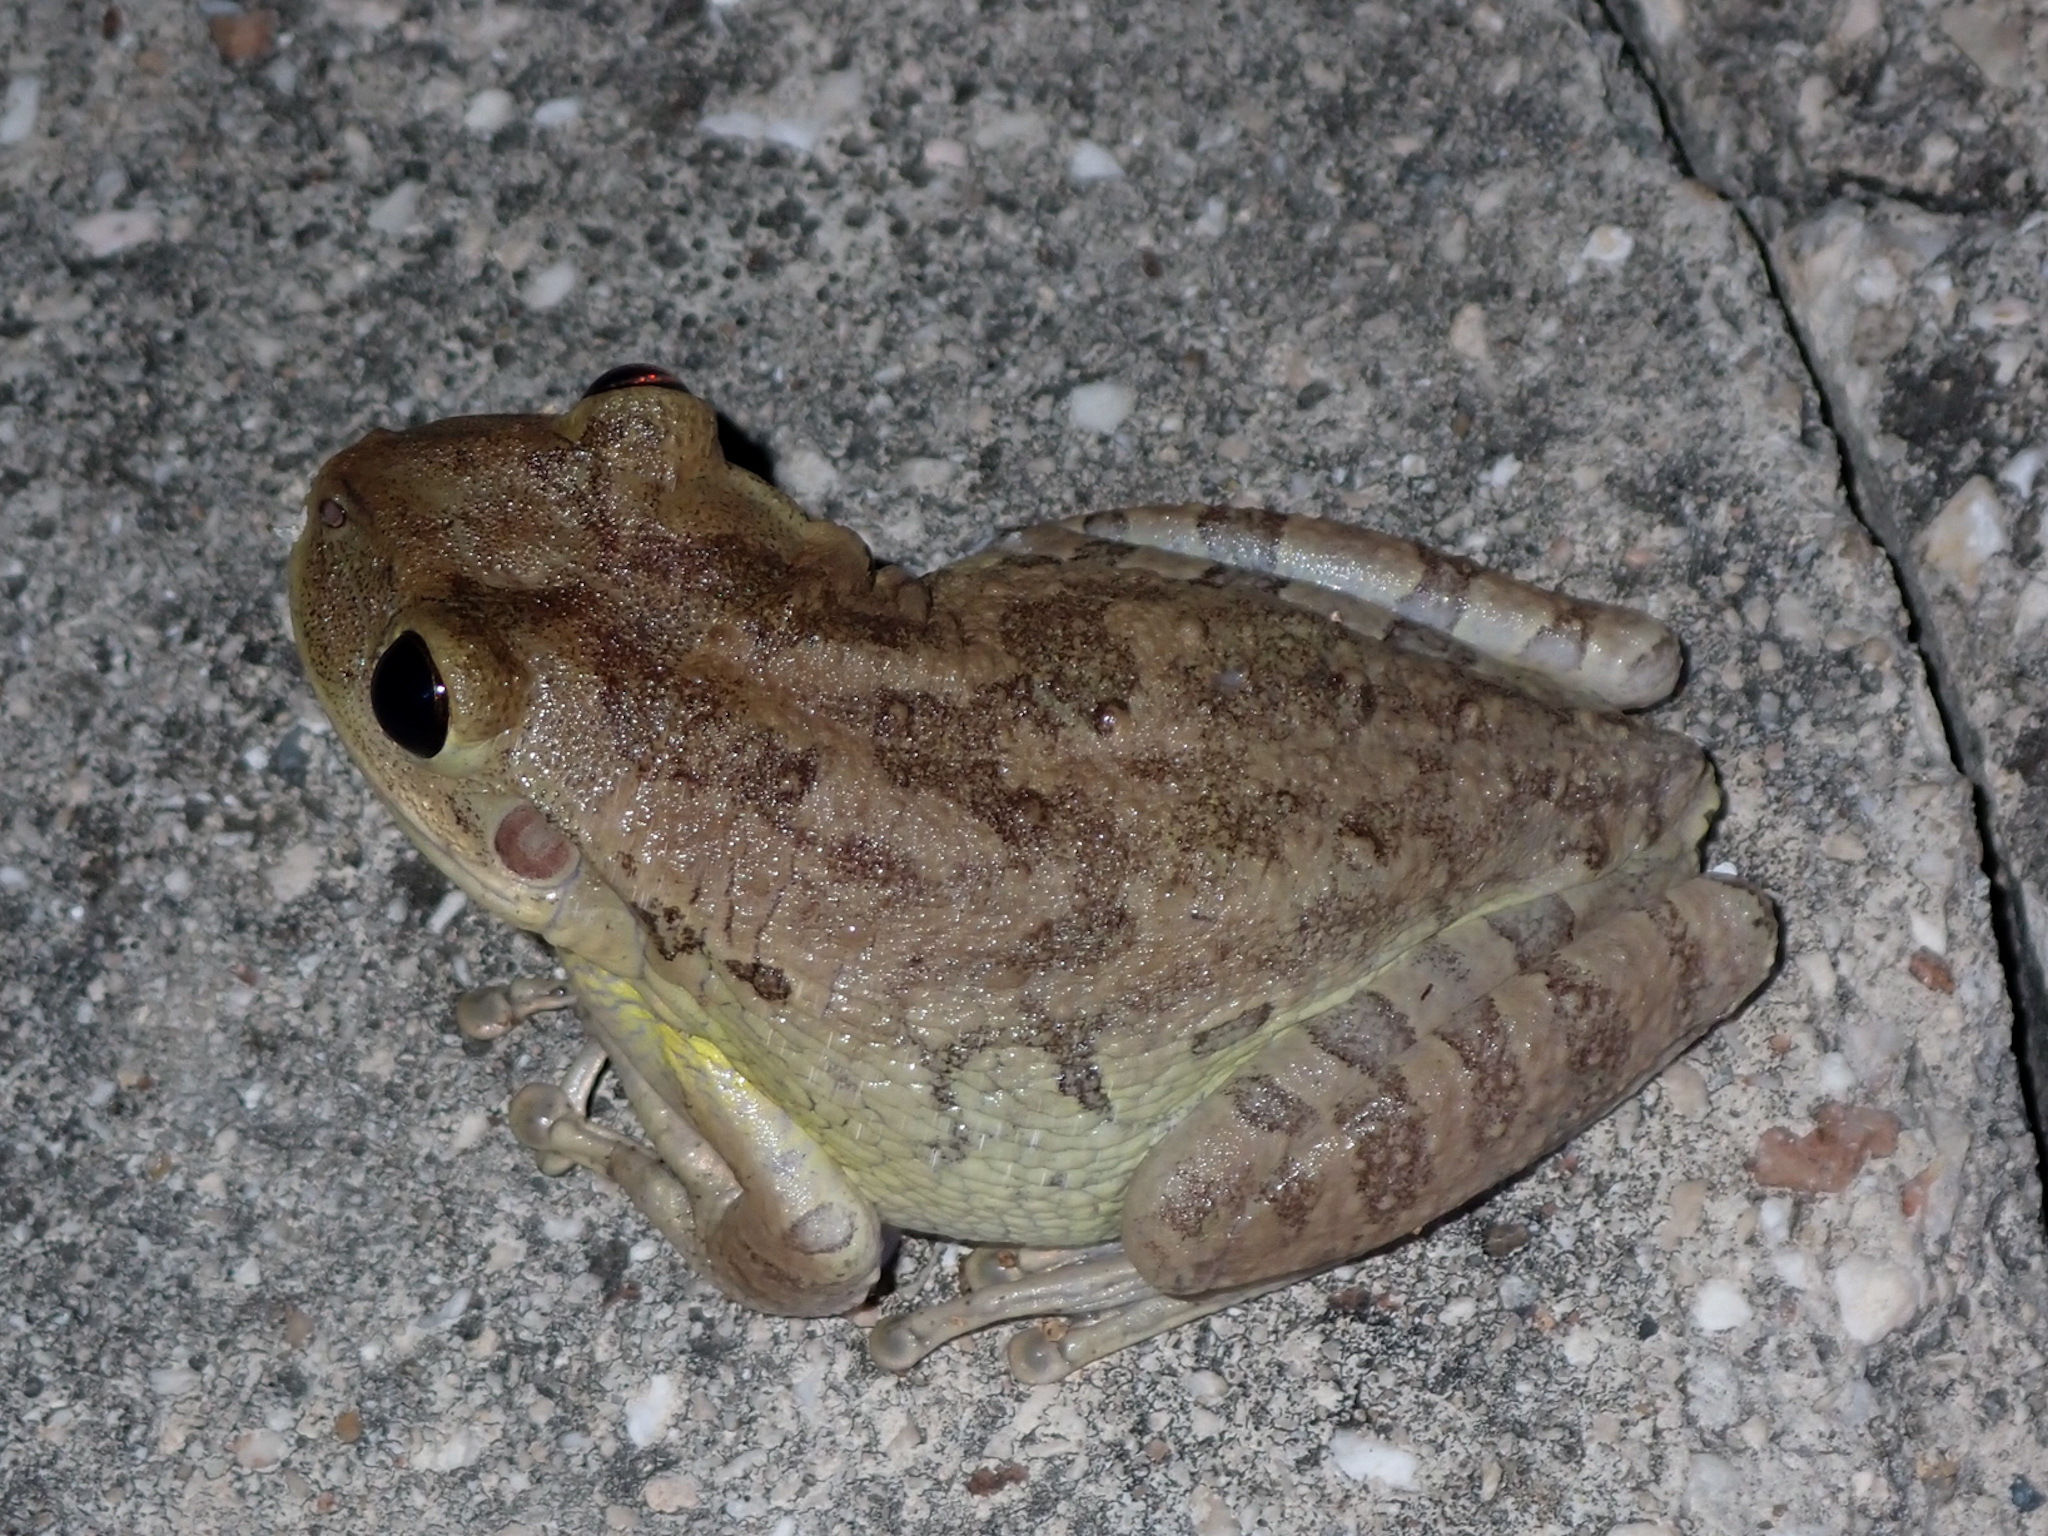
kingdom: Animalia
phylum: Chordata
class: Amphibia
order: Anura
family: Hylidae
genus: Osteopilus
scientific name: Osteopilus septentrionalis
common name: Cuban treefrog
